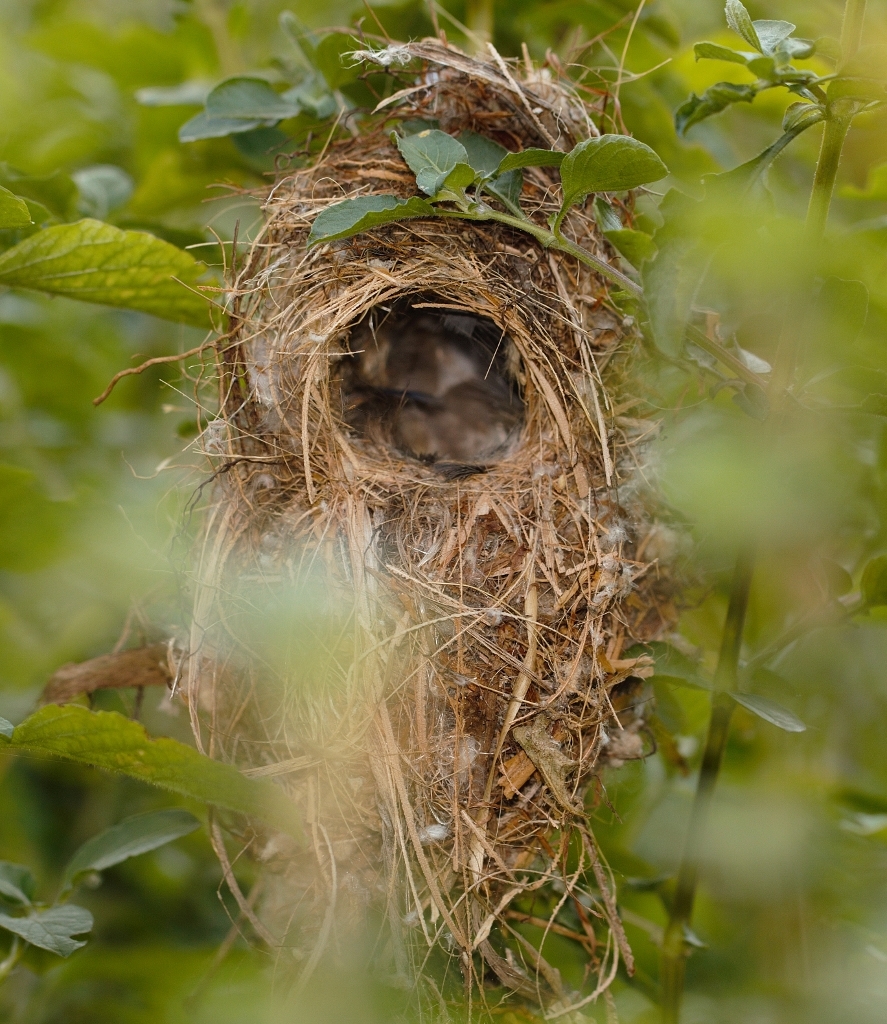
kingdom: Animalia
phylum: Chordata
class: Aves
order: Passeriformes
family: Nectariniidae
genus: Cinnyris
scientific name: Cinnyris venustus
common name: Variable sunbird
